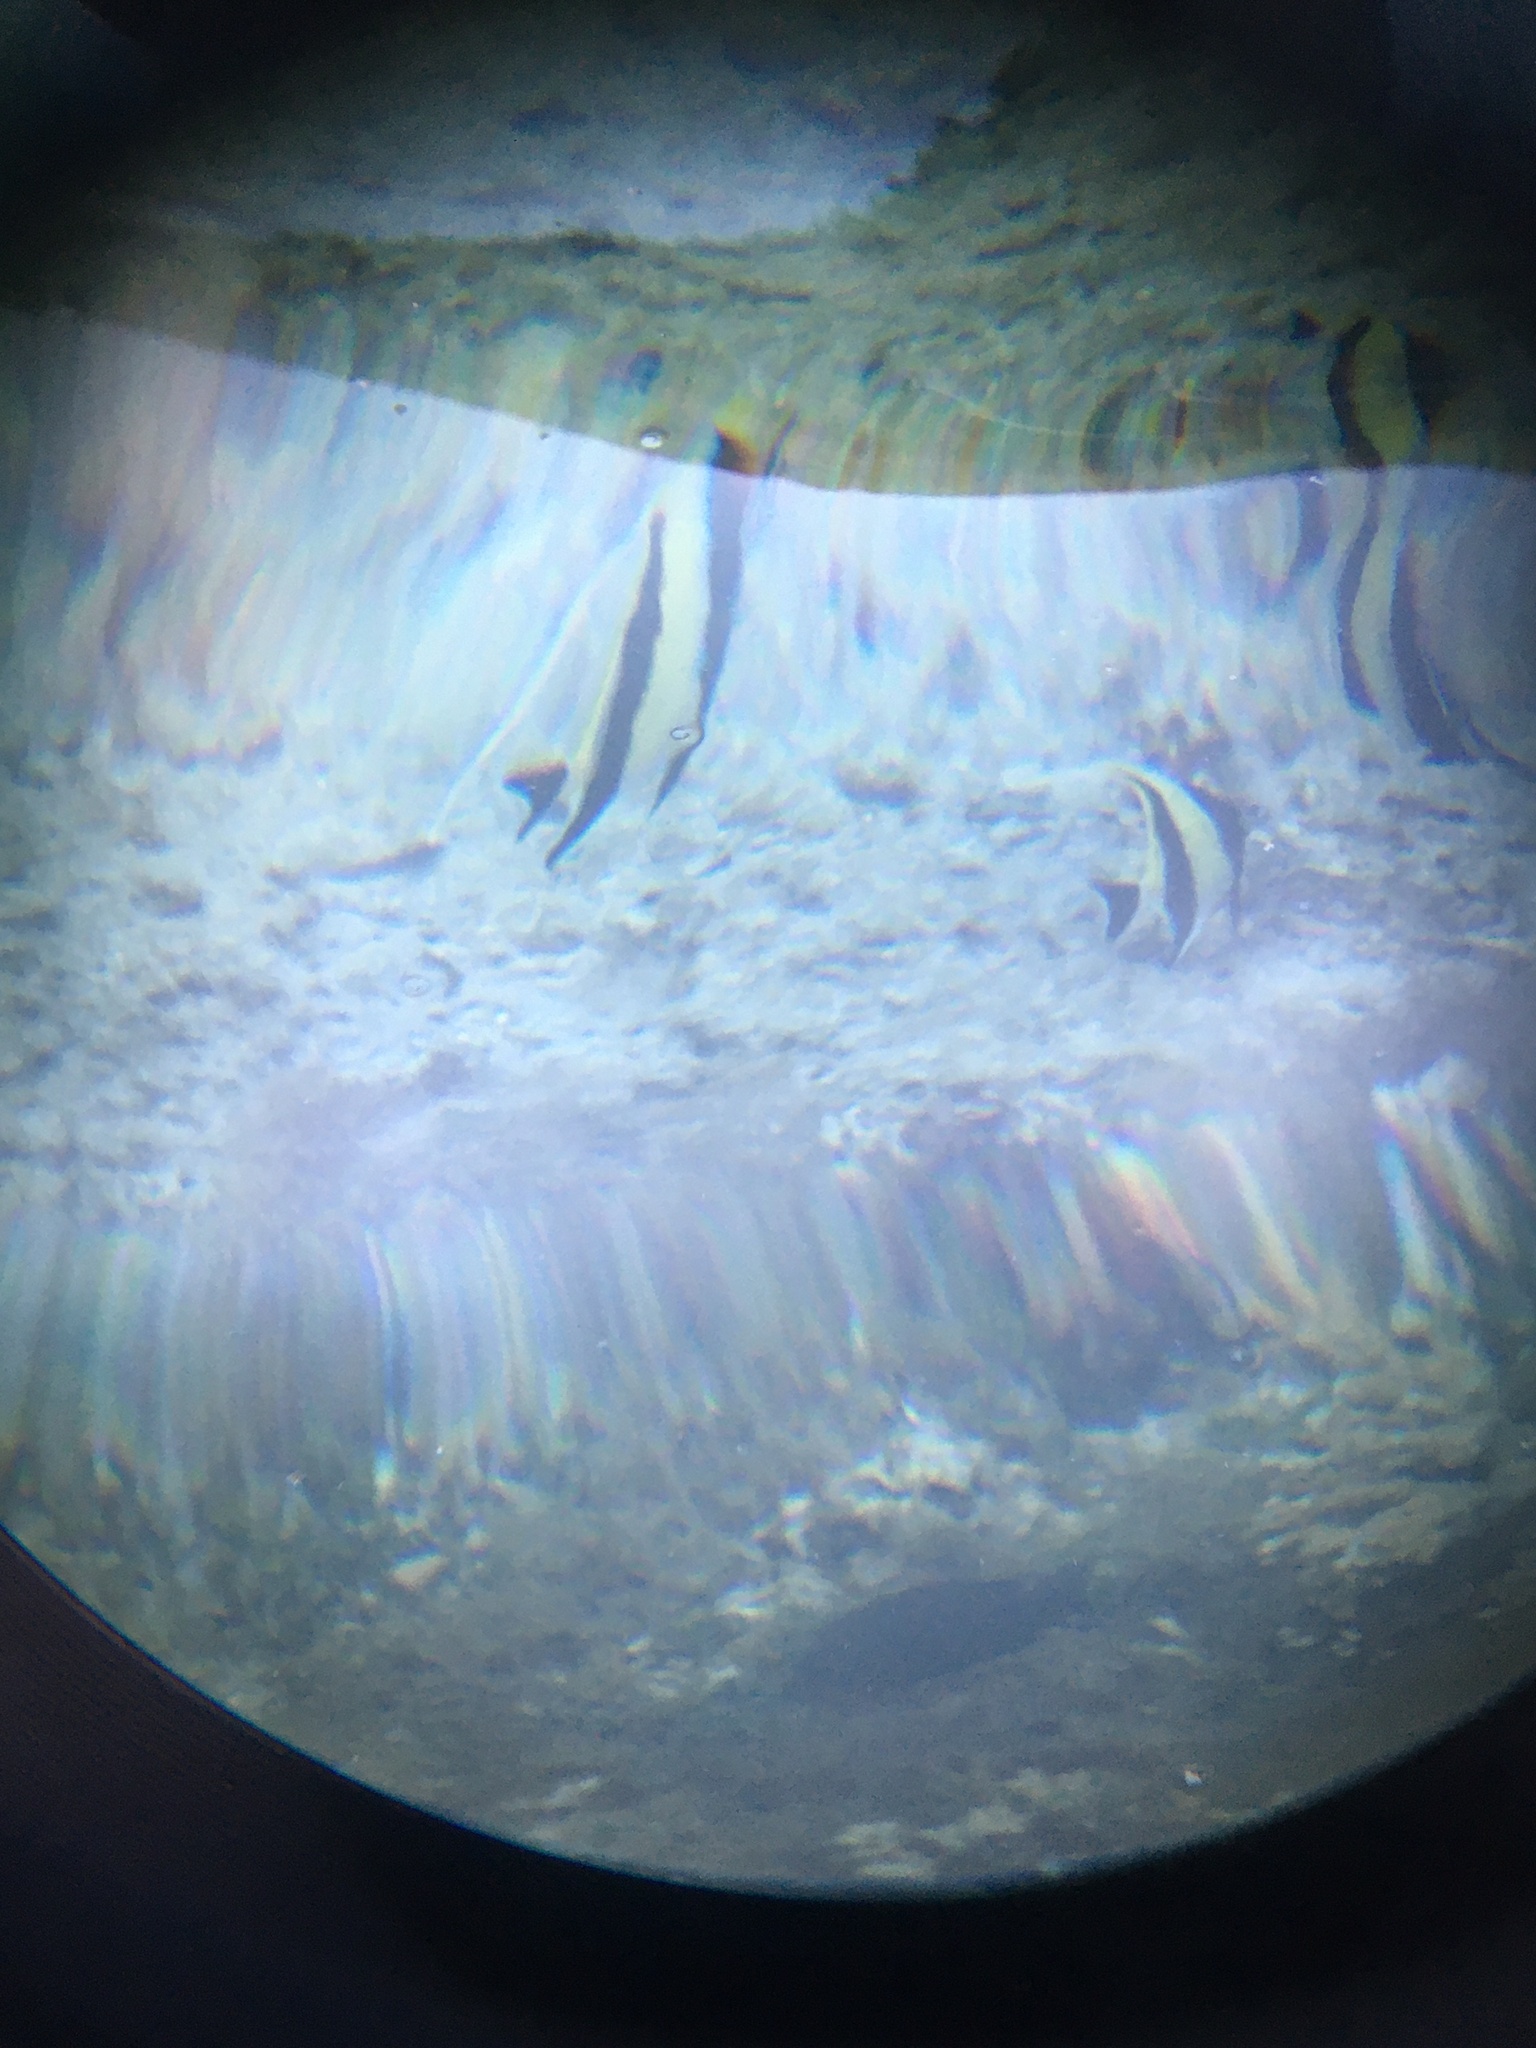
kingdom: Animalia
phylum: Chordata
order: Perciformes
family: Zanclidae
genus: Zanclus
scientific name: Zanclus cornutus
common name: Moorish idol
